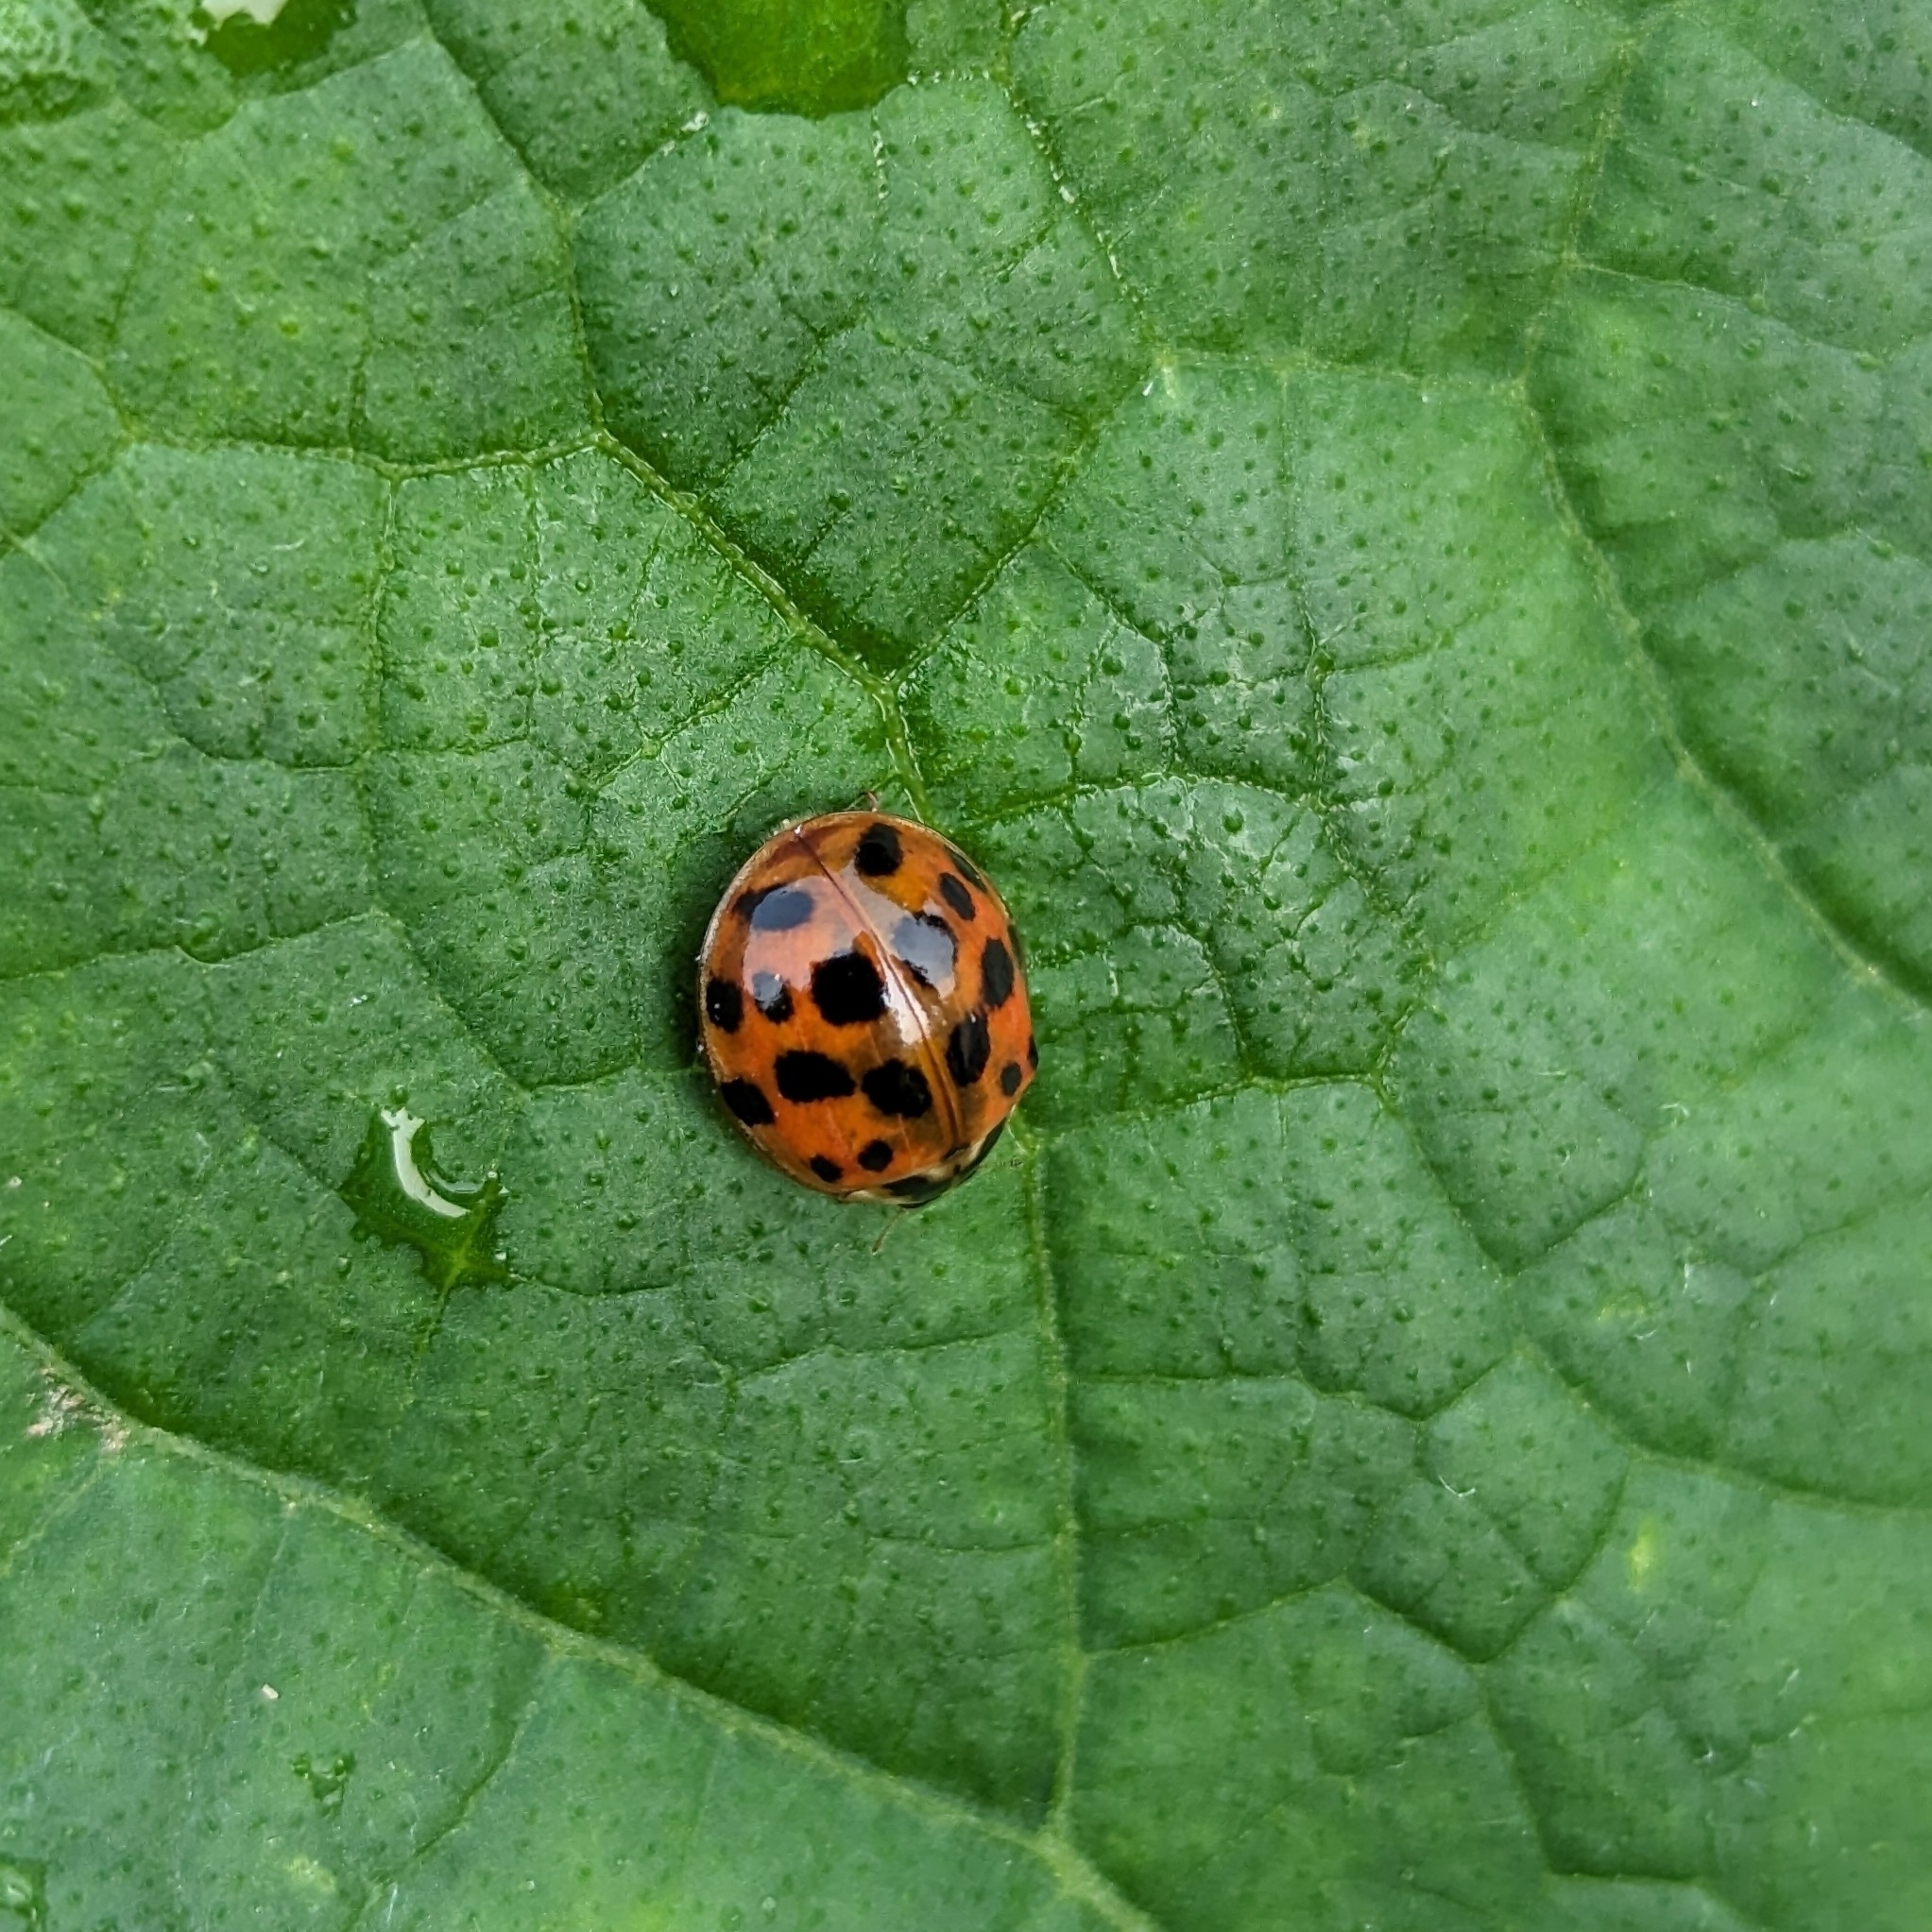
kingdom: Animalia
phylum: Arthropoda
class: Insecta
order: Coleoptera
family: Coccinellidae
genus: Harmonia
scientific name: Harmonia axyridis
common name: Harlequin ladybird
